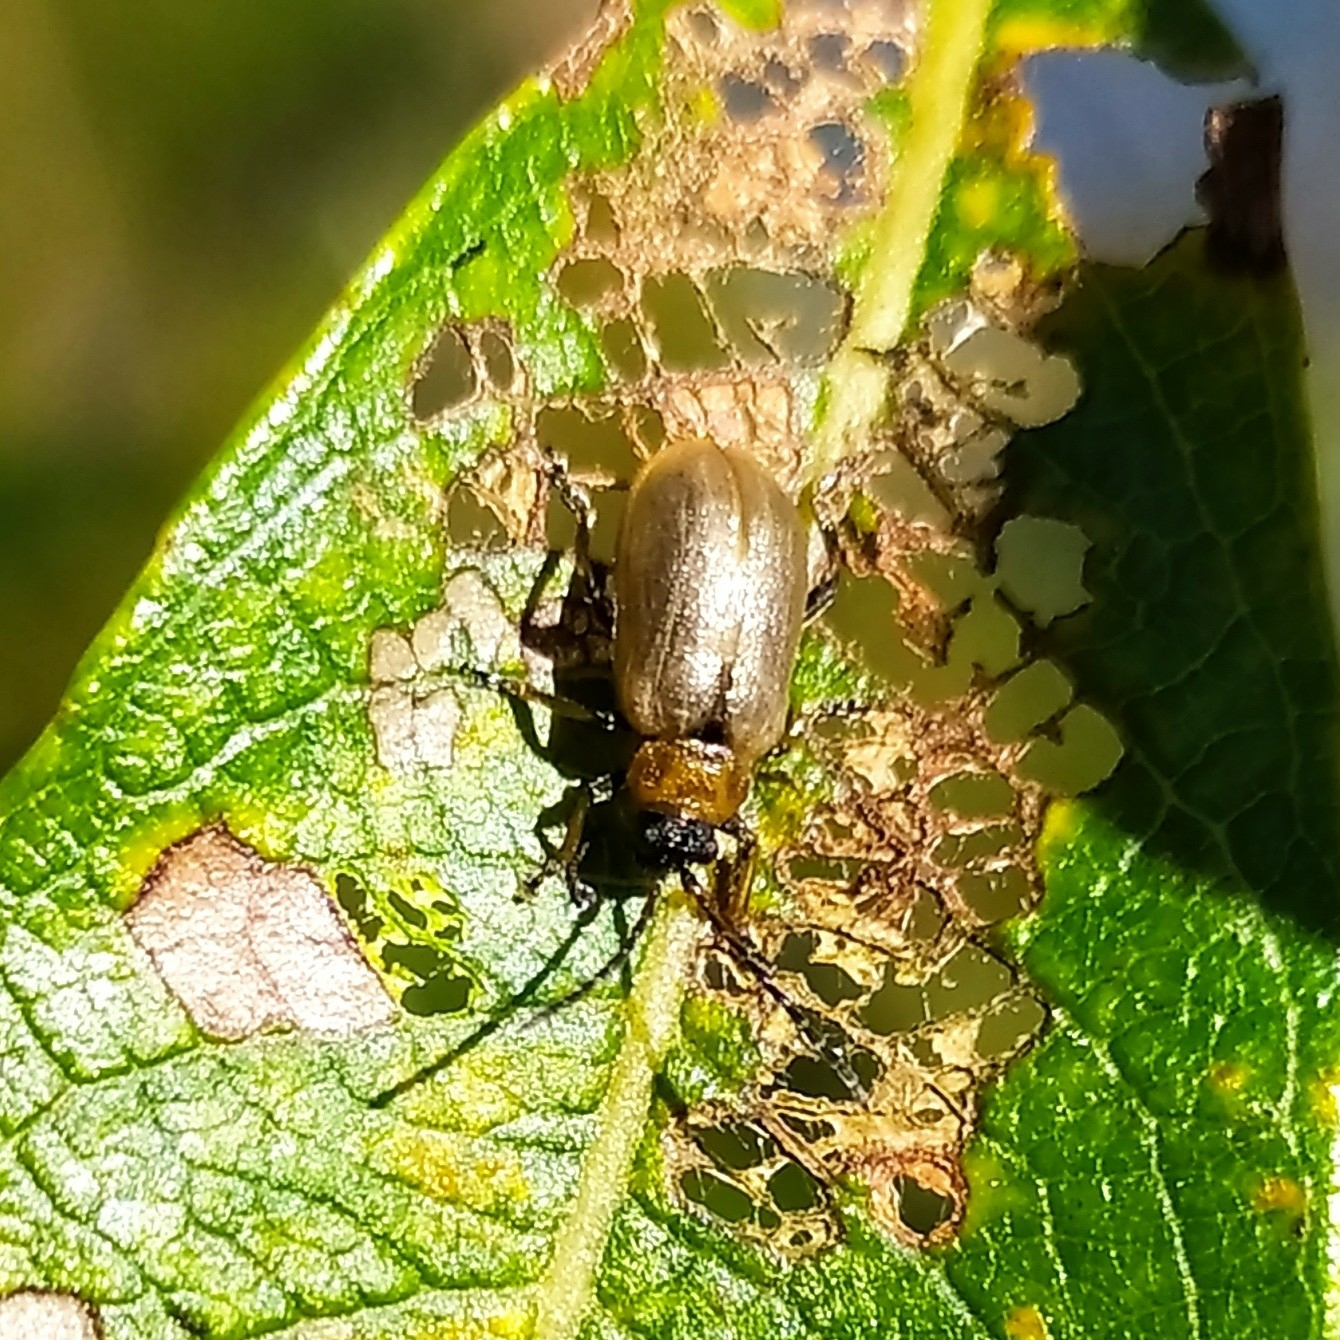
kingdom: Animalia
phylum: Arthropoda
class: Insecta
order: Coleoptera
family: Chrysomelidae
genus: Lochmaea
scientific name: Lochmaea caprea
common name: Willow leaf beetle
